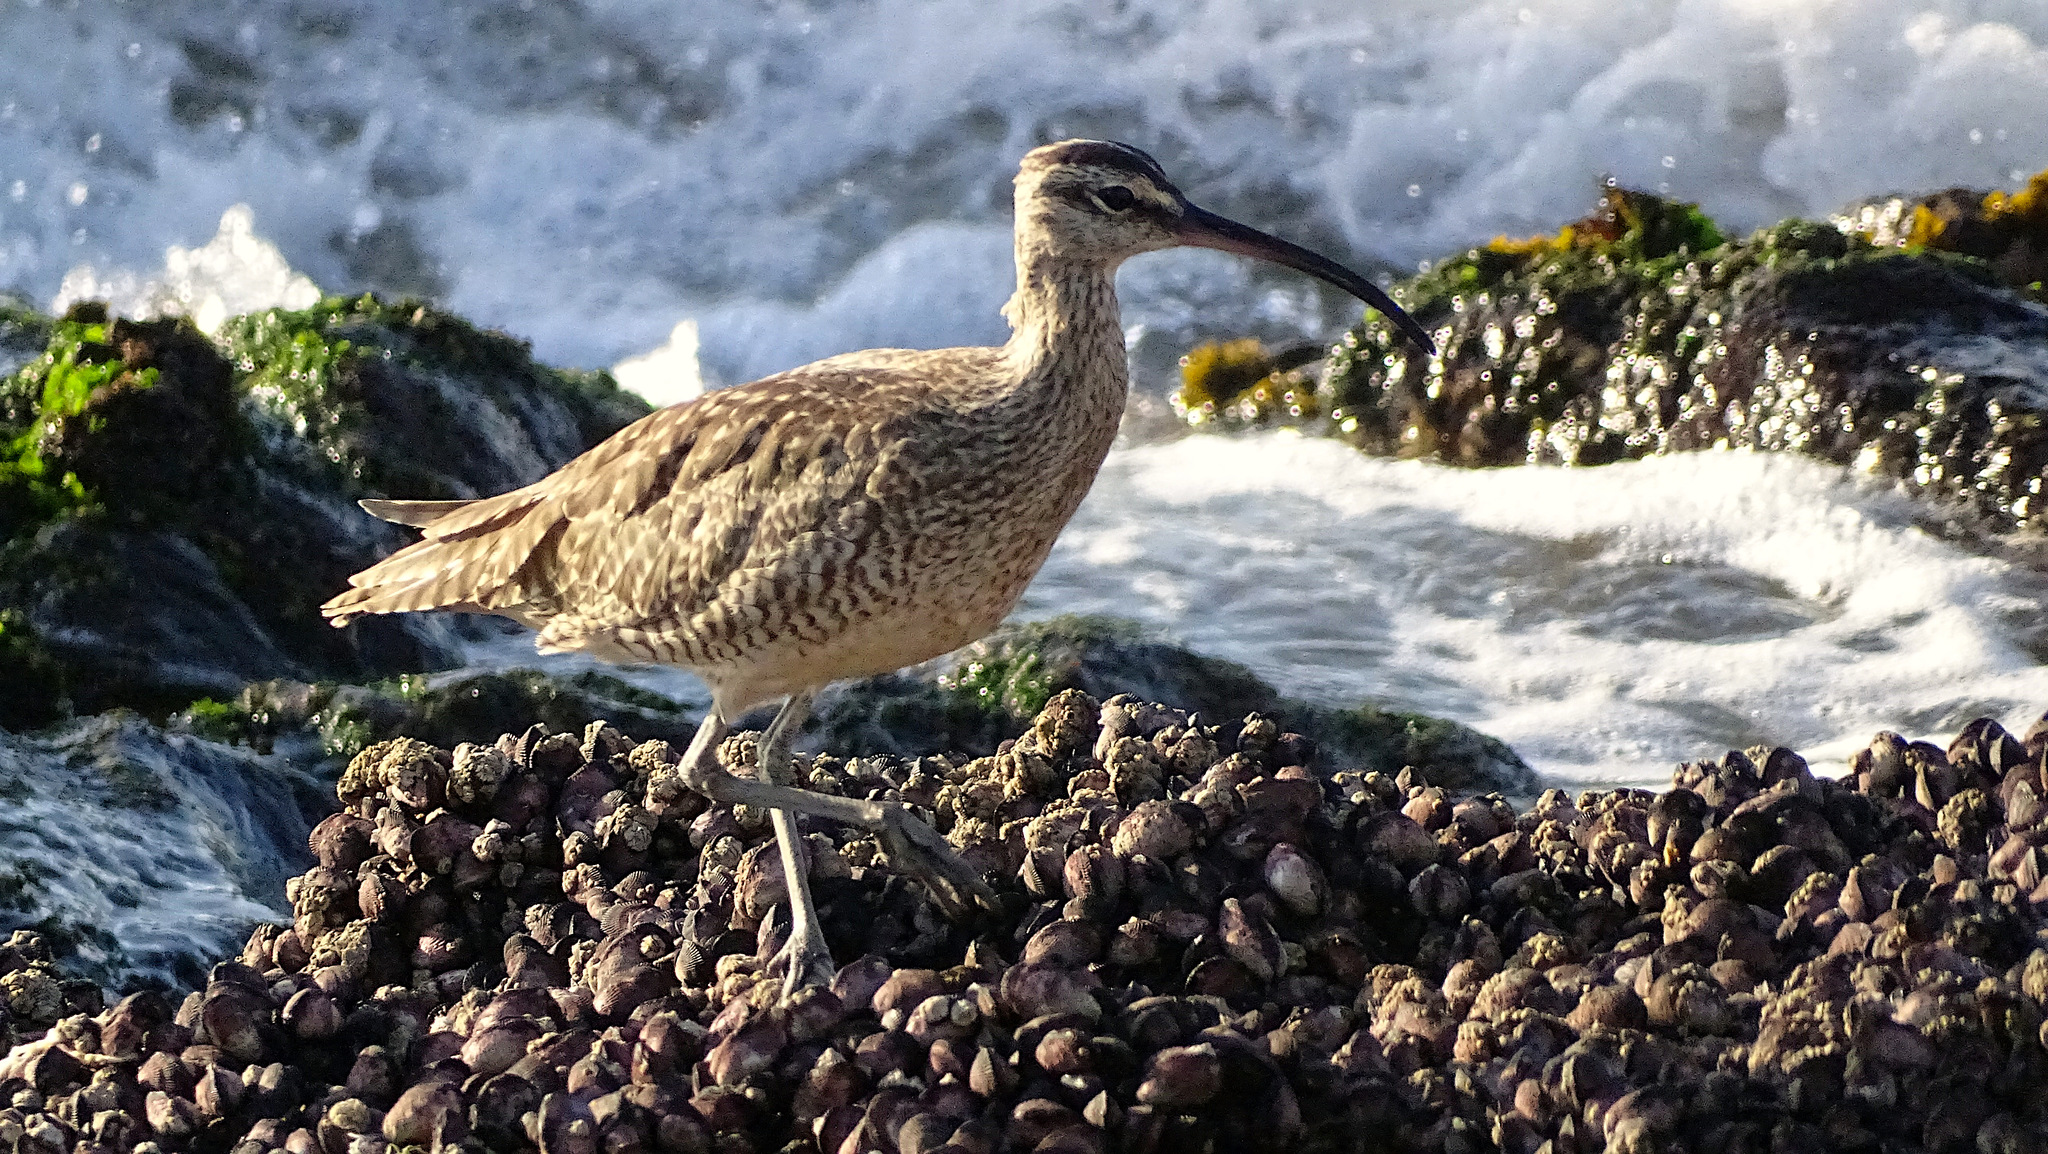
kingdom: Animalia
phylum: Chordata
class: Aves
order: Charadriiformes
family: Scolopacidae
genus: Numenius
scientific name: Numenius phaeopus
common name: Whimbrel
